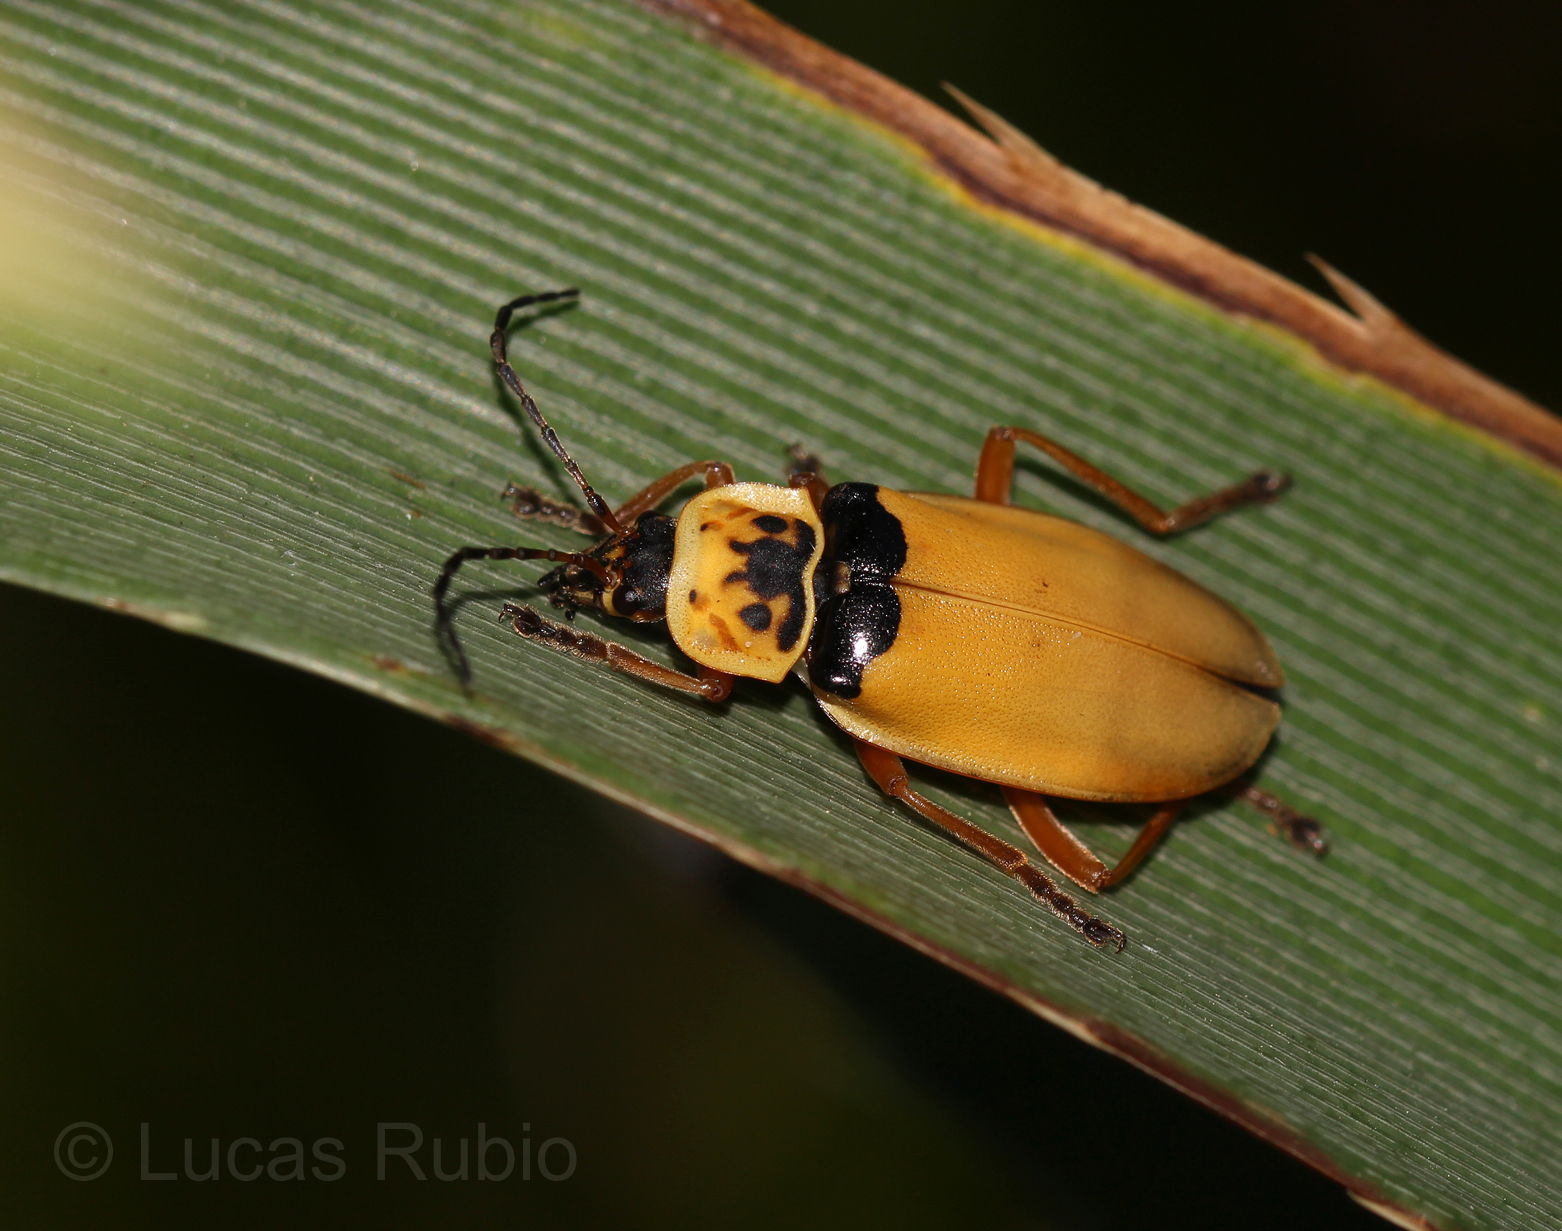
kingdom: Animalia
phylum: Arthropoda
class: Insecta
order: Coleoptera
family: Cantharidae
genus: Chauliognathus
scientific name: Chauliognathus
